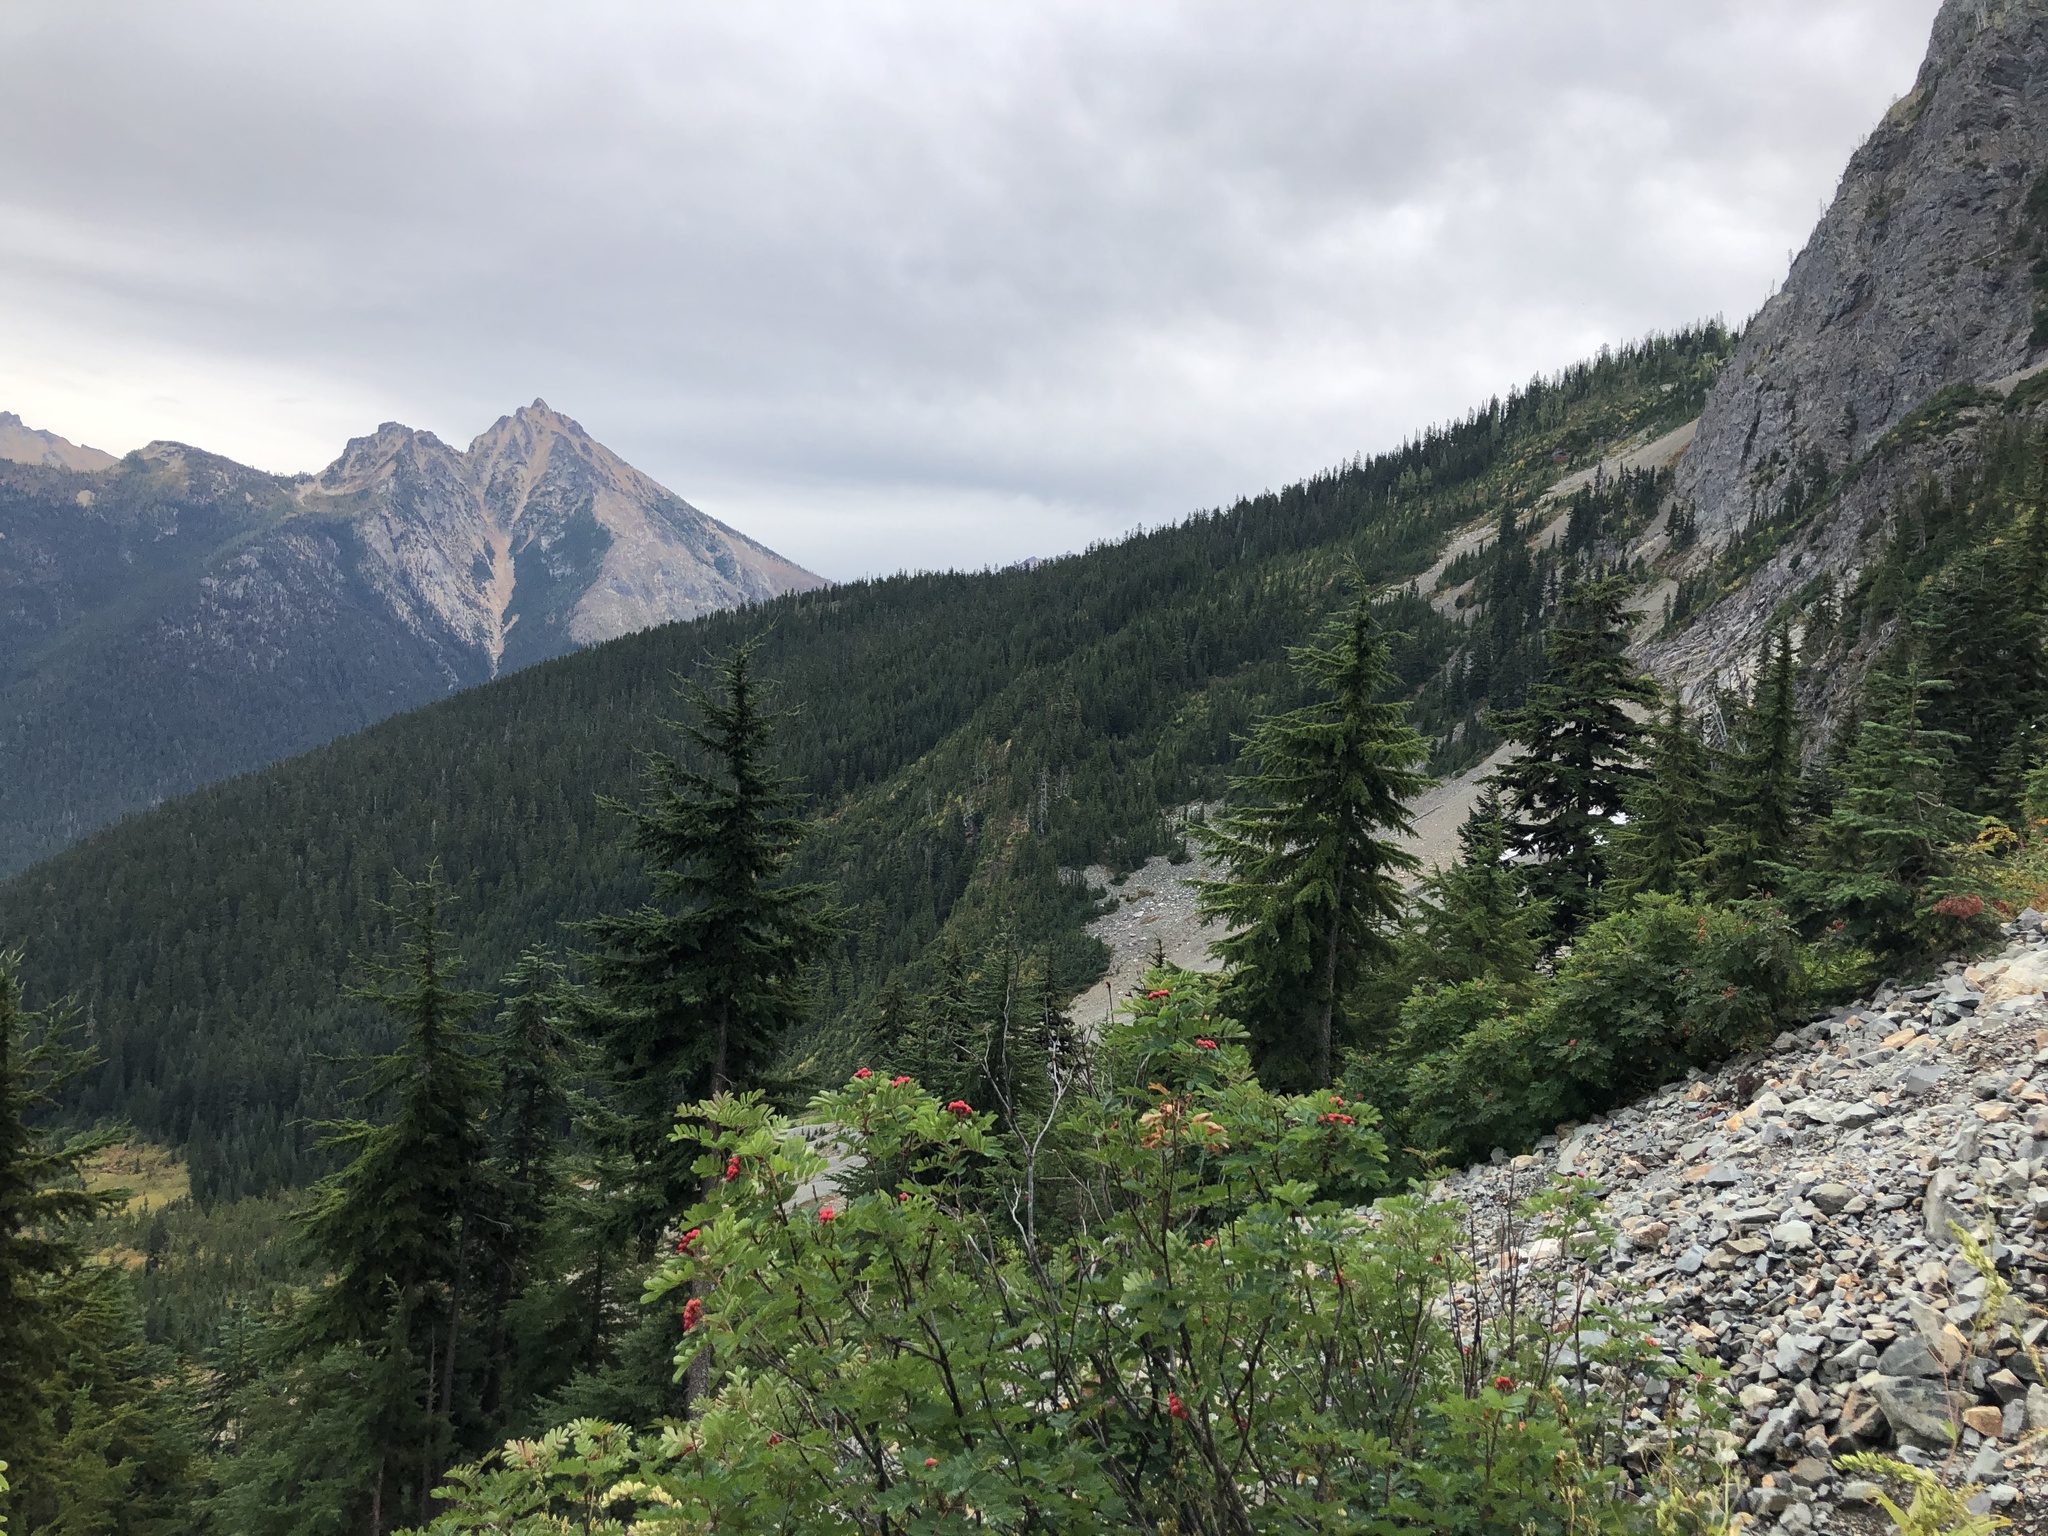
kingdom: Plantae
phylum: Tracheophyta
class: Pinopsida
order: Pinales
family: Pinaceae
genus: Tsuga
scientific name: Tsuga mertensiana
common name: Mountain hemlock
